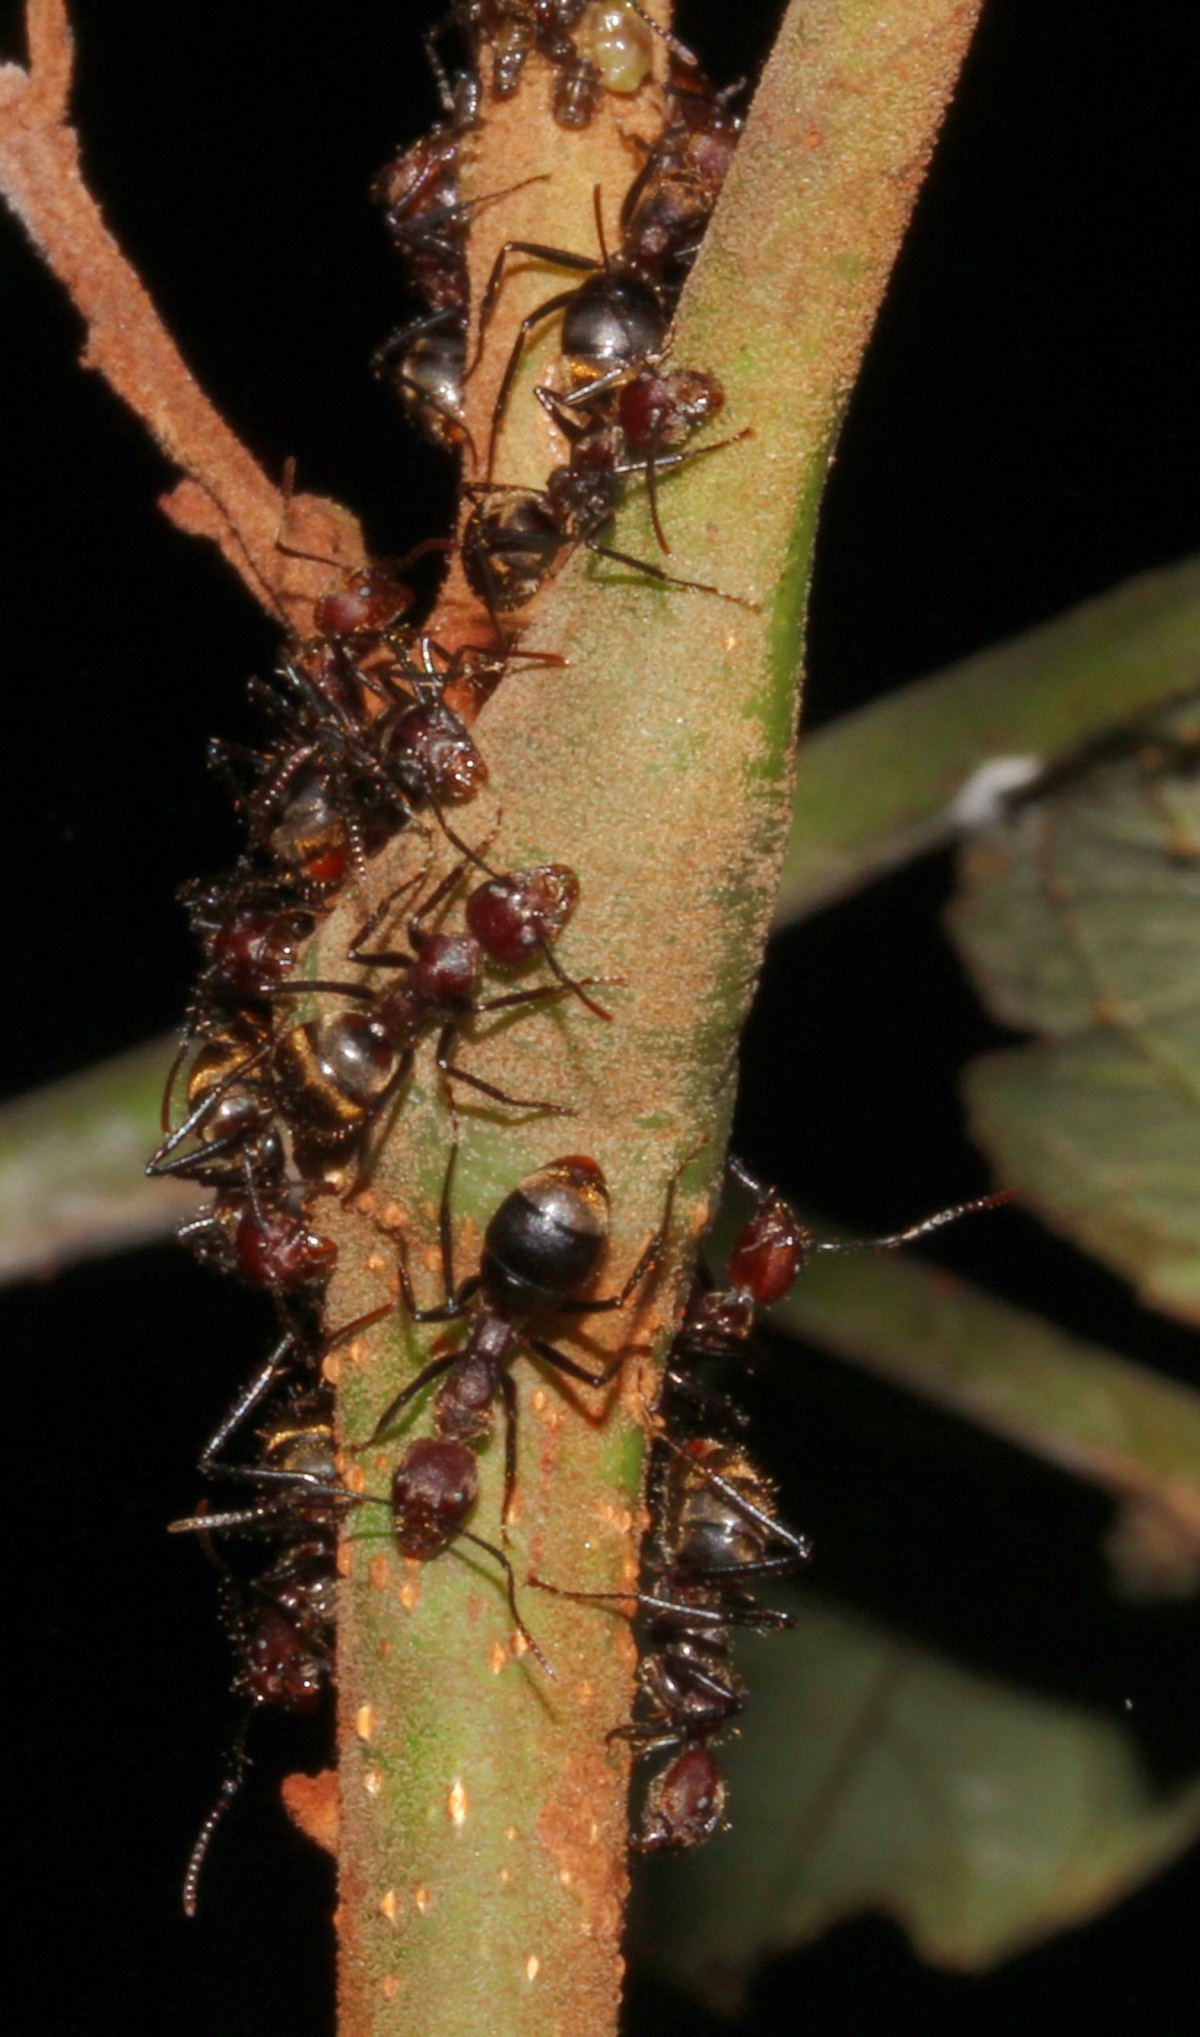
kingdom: Animalia
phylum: Arthropoda
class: Insecta
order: Hymenoptera
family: Formicidae
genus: Dolichoderus
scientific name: Dolichoderus quadridenticulatus
